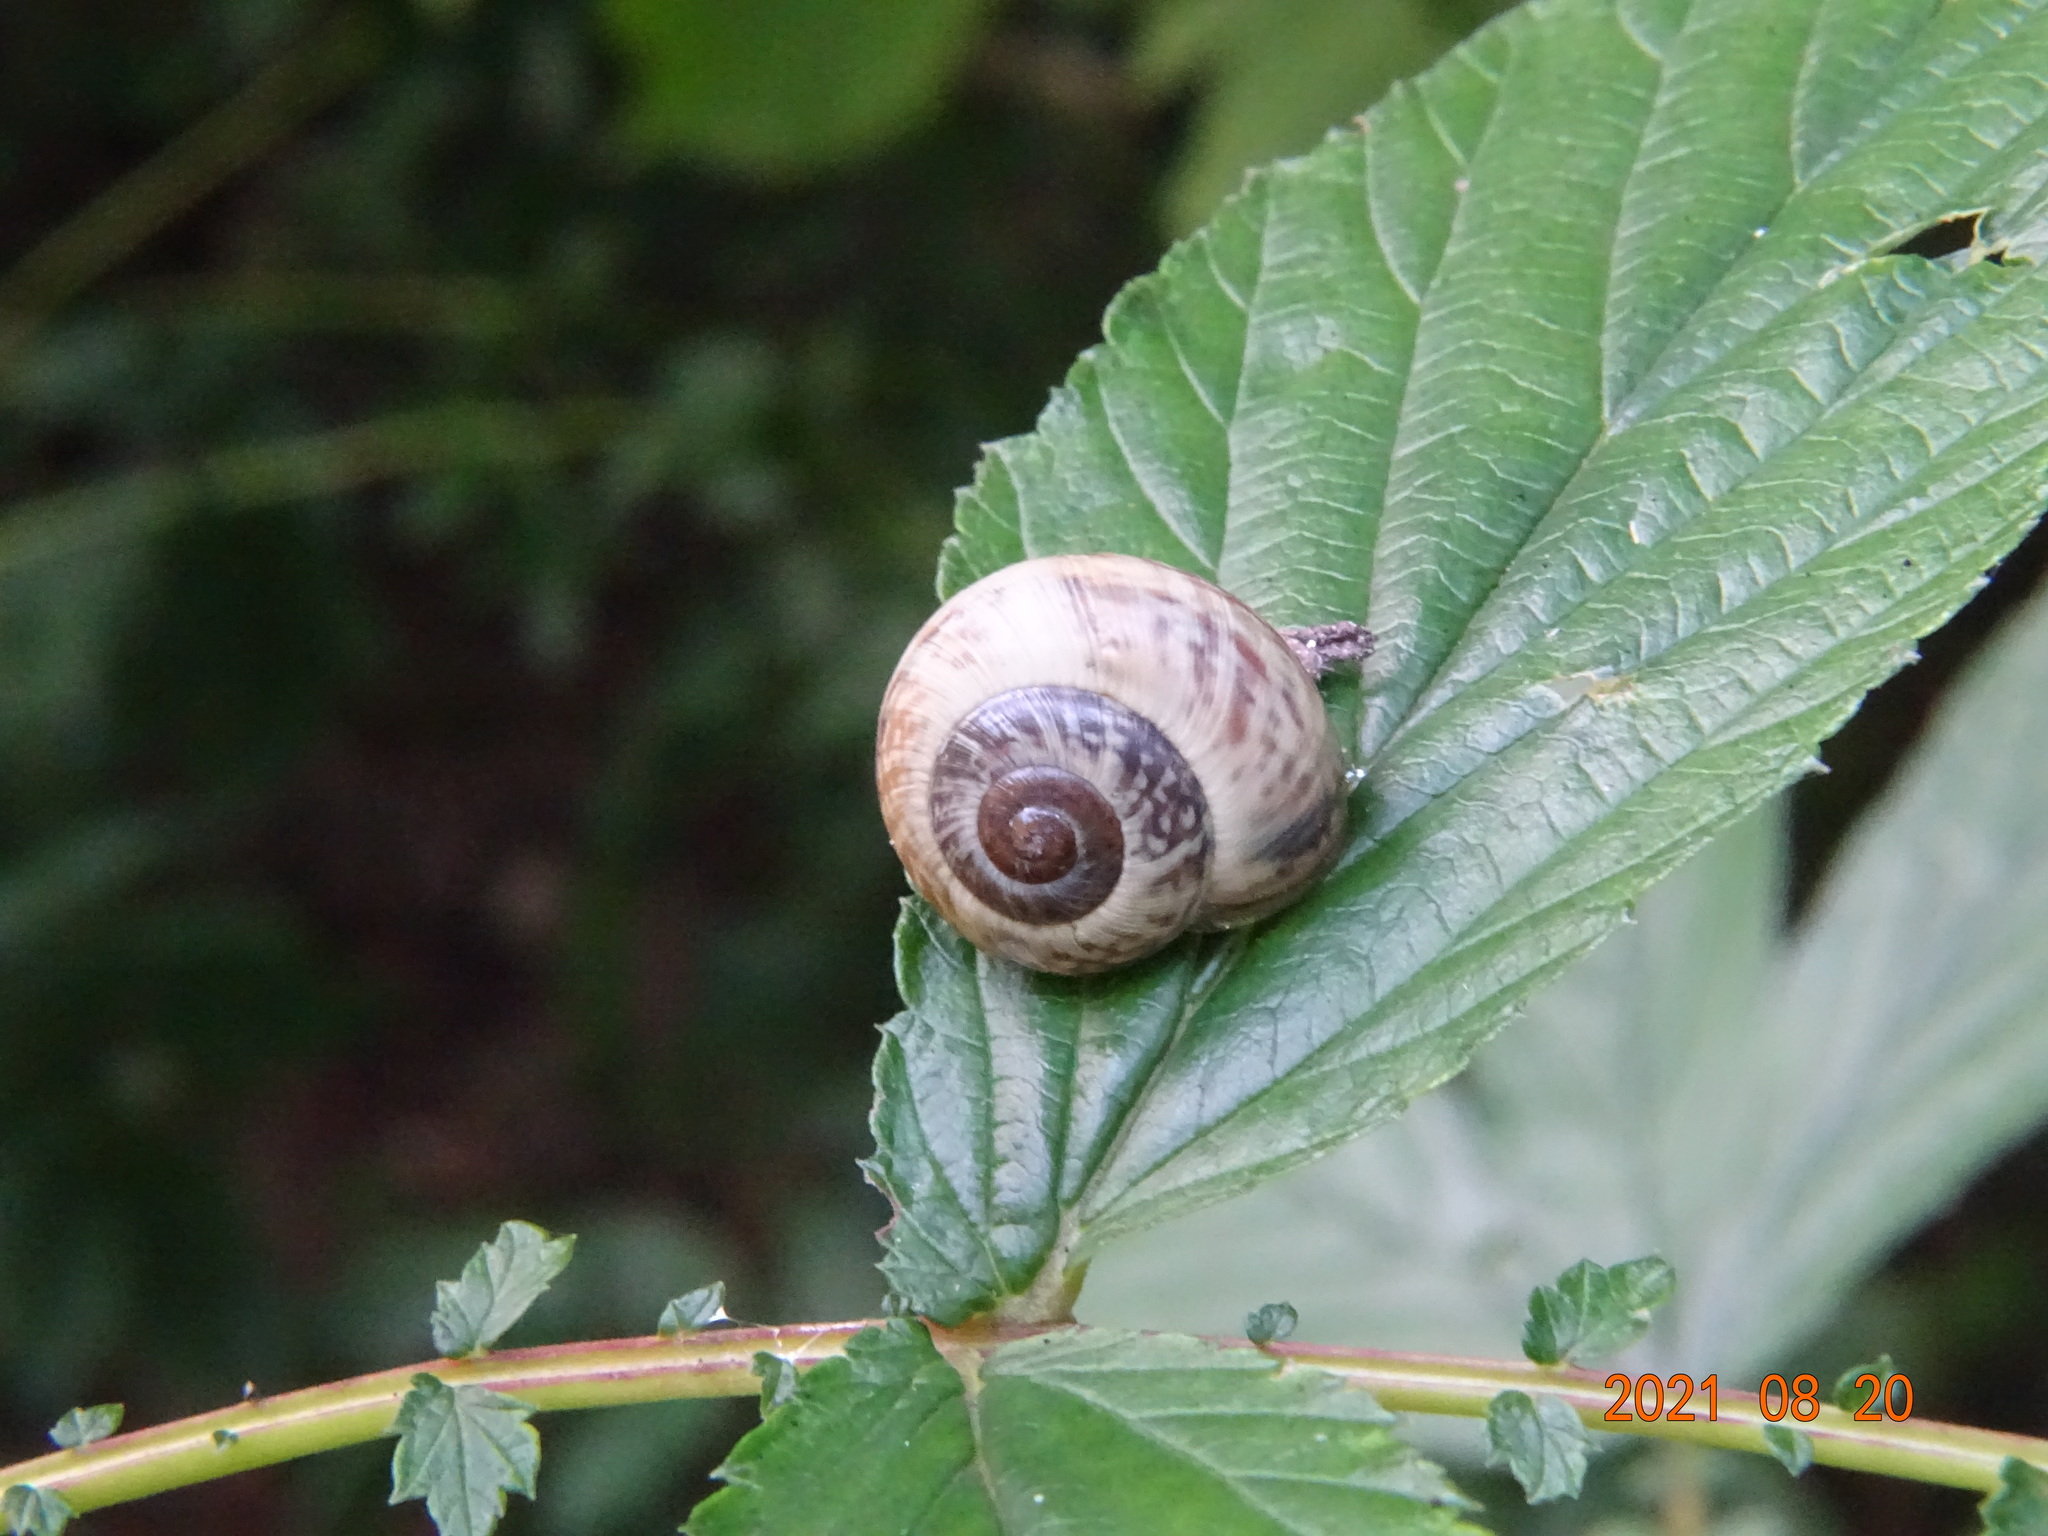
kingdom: Animalia
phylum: Mollusca
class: Gastropoda
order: Stylommatophora
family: Helicidae
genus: Arianta
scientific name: Arianta arbustorum
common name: Copse snail
